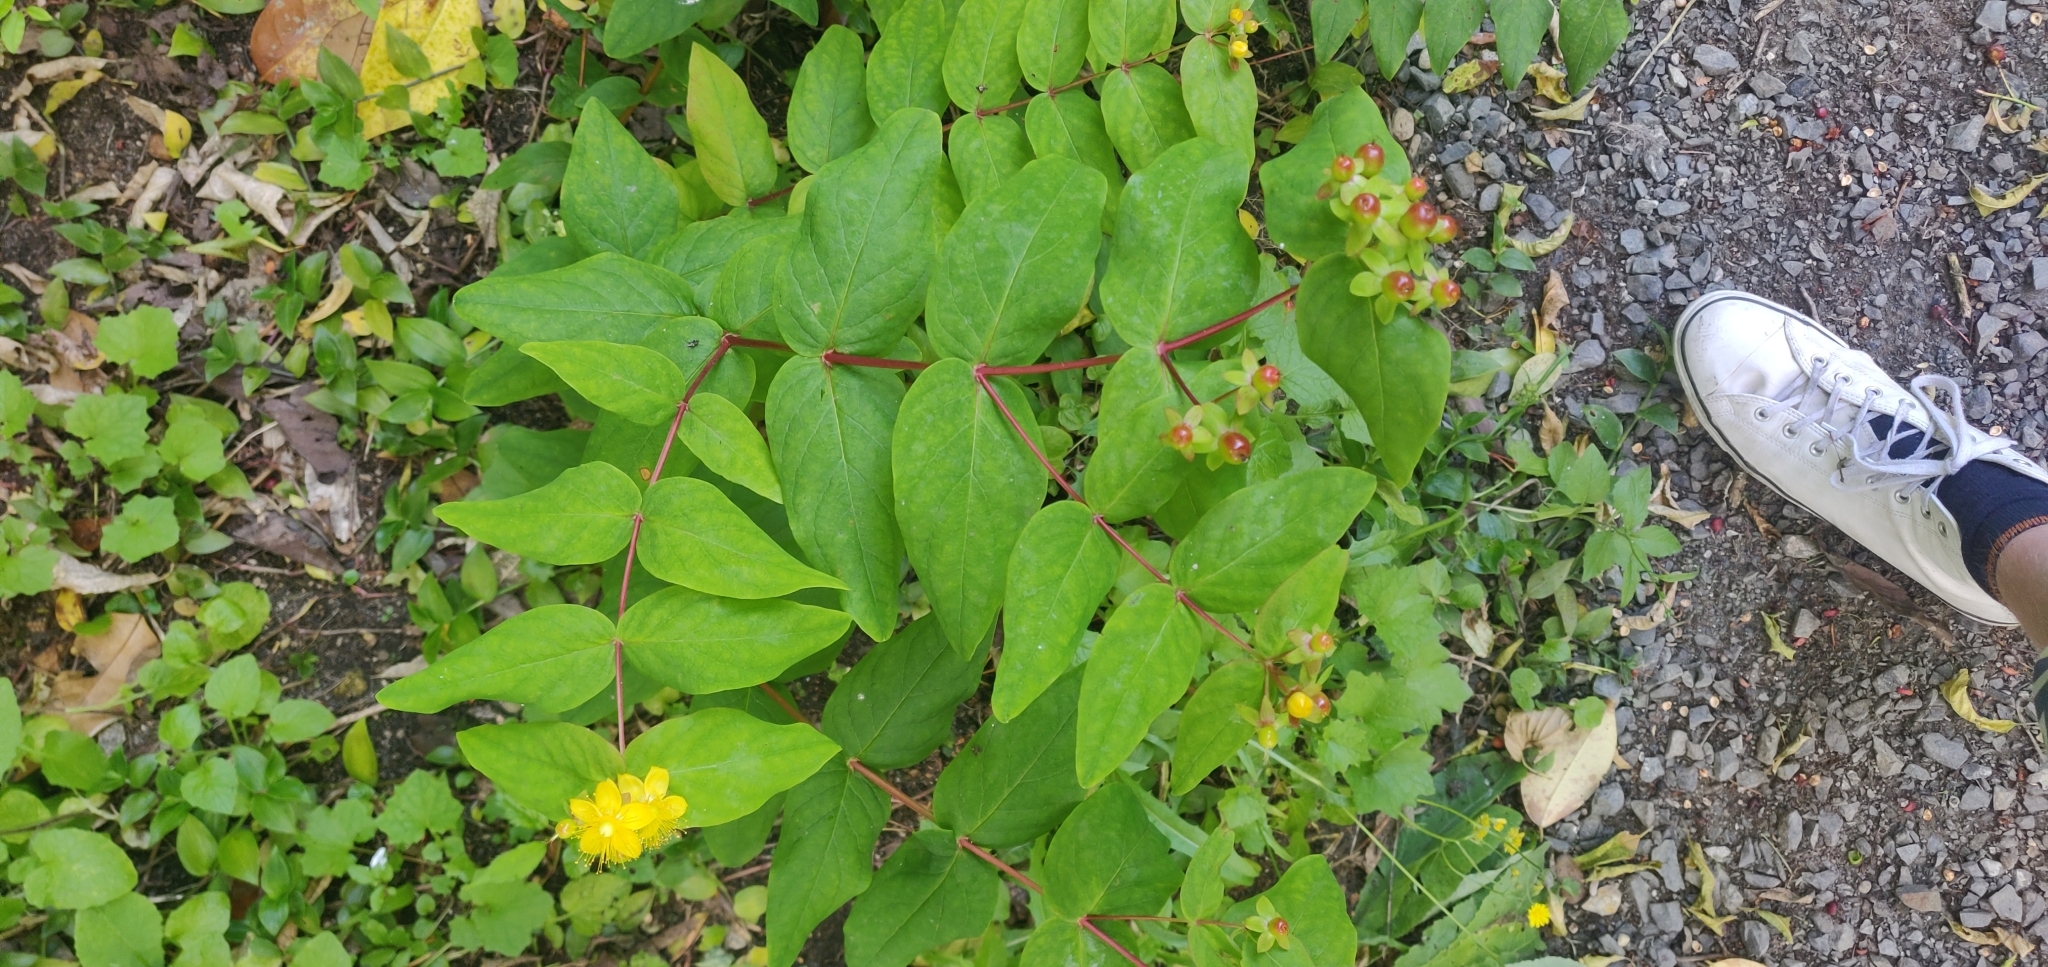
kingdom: Plantae
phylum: Tracheophyta
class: Magnoliopsida
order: Malpighiales
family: Hypericaceae
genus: Hypericum
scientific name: Hypericum androsaemum
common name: Sweet-amber
